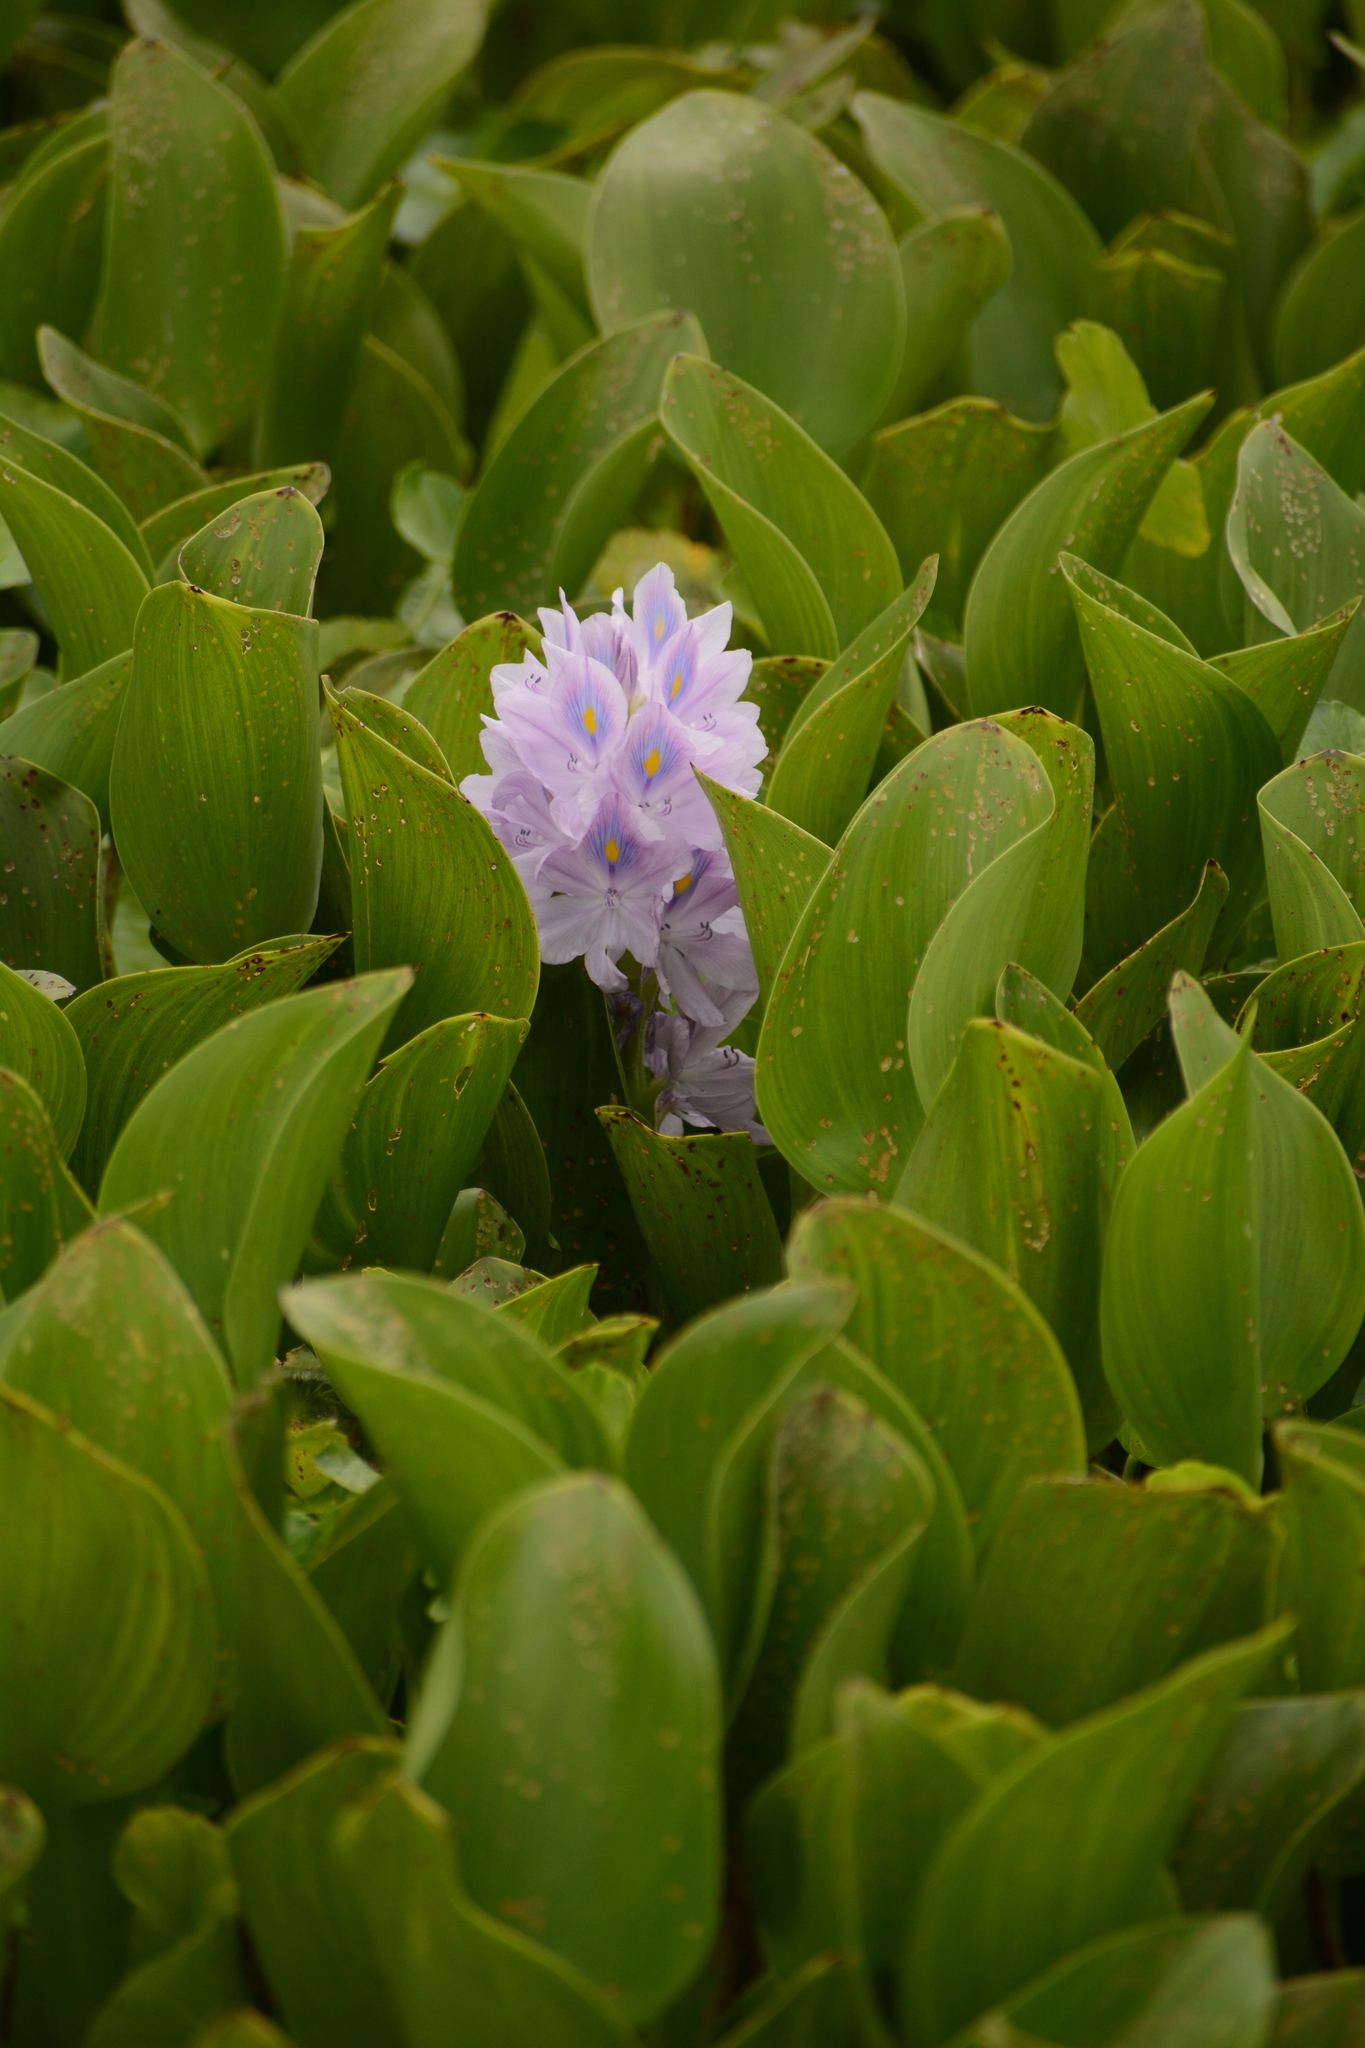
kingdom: Plantae
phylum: Tracheophyta
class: Liliopsida
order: Commelinales
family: Pontederiaceae
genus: Pontederia
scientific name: Pontederia crassipes
